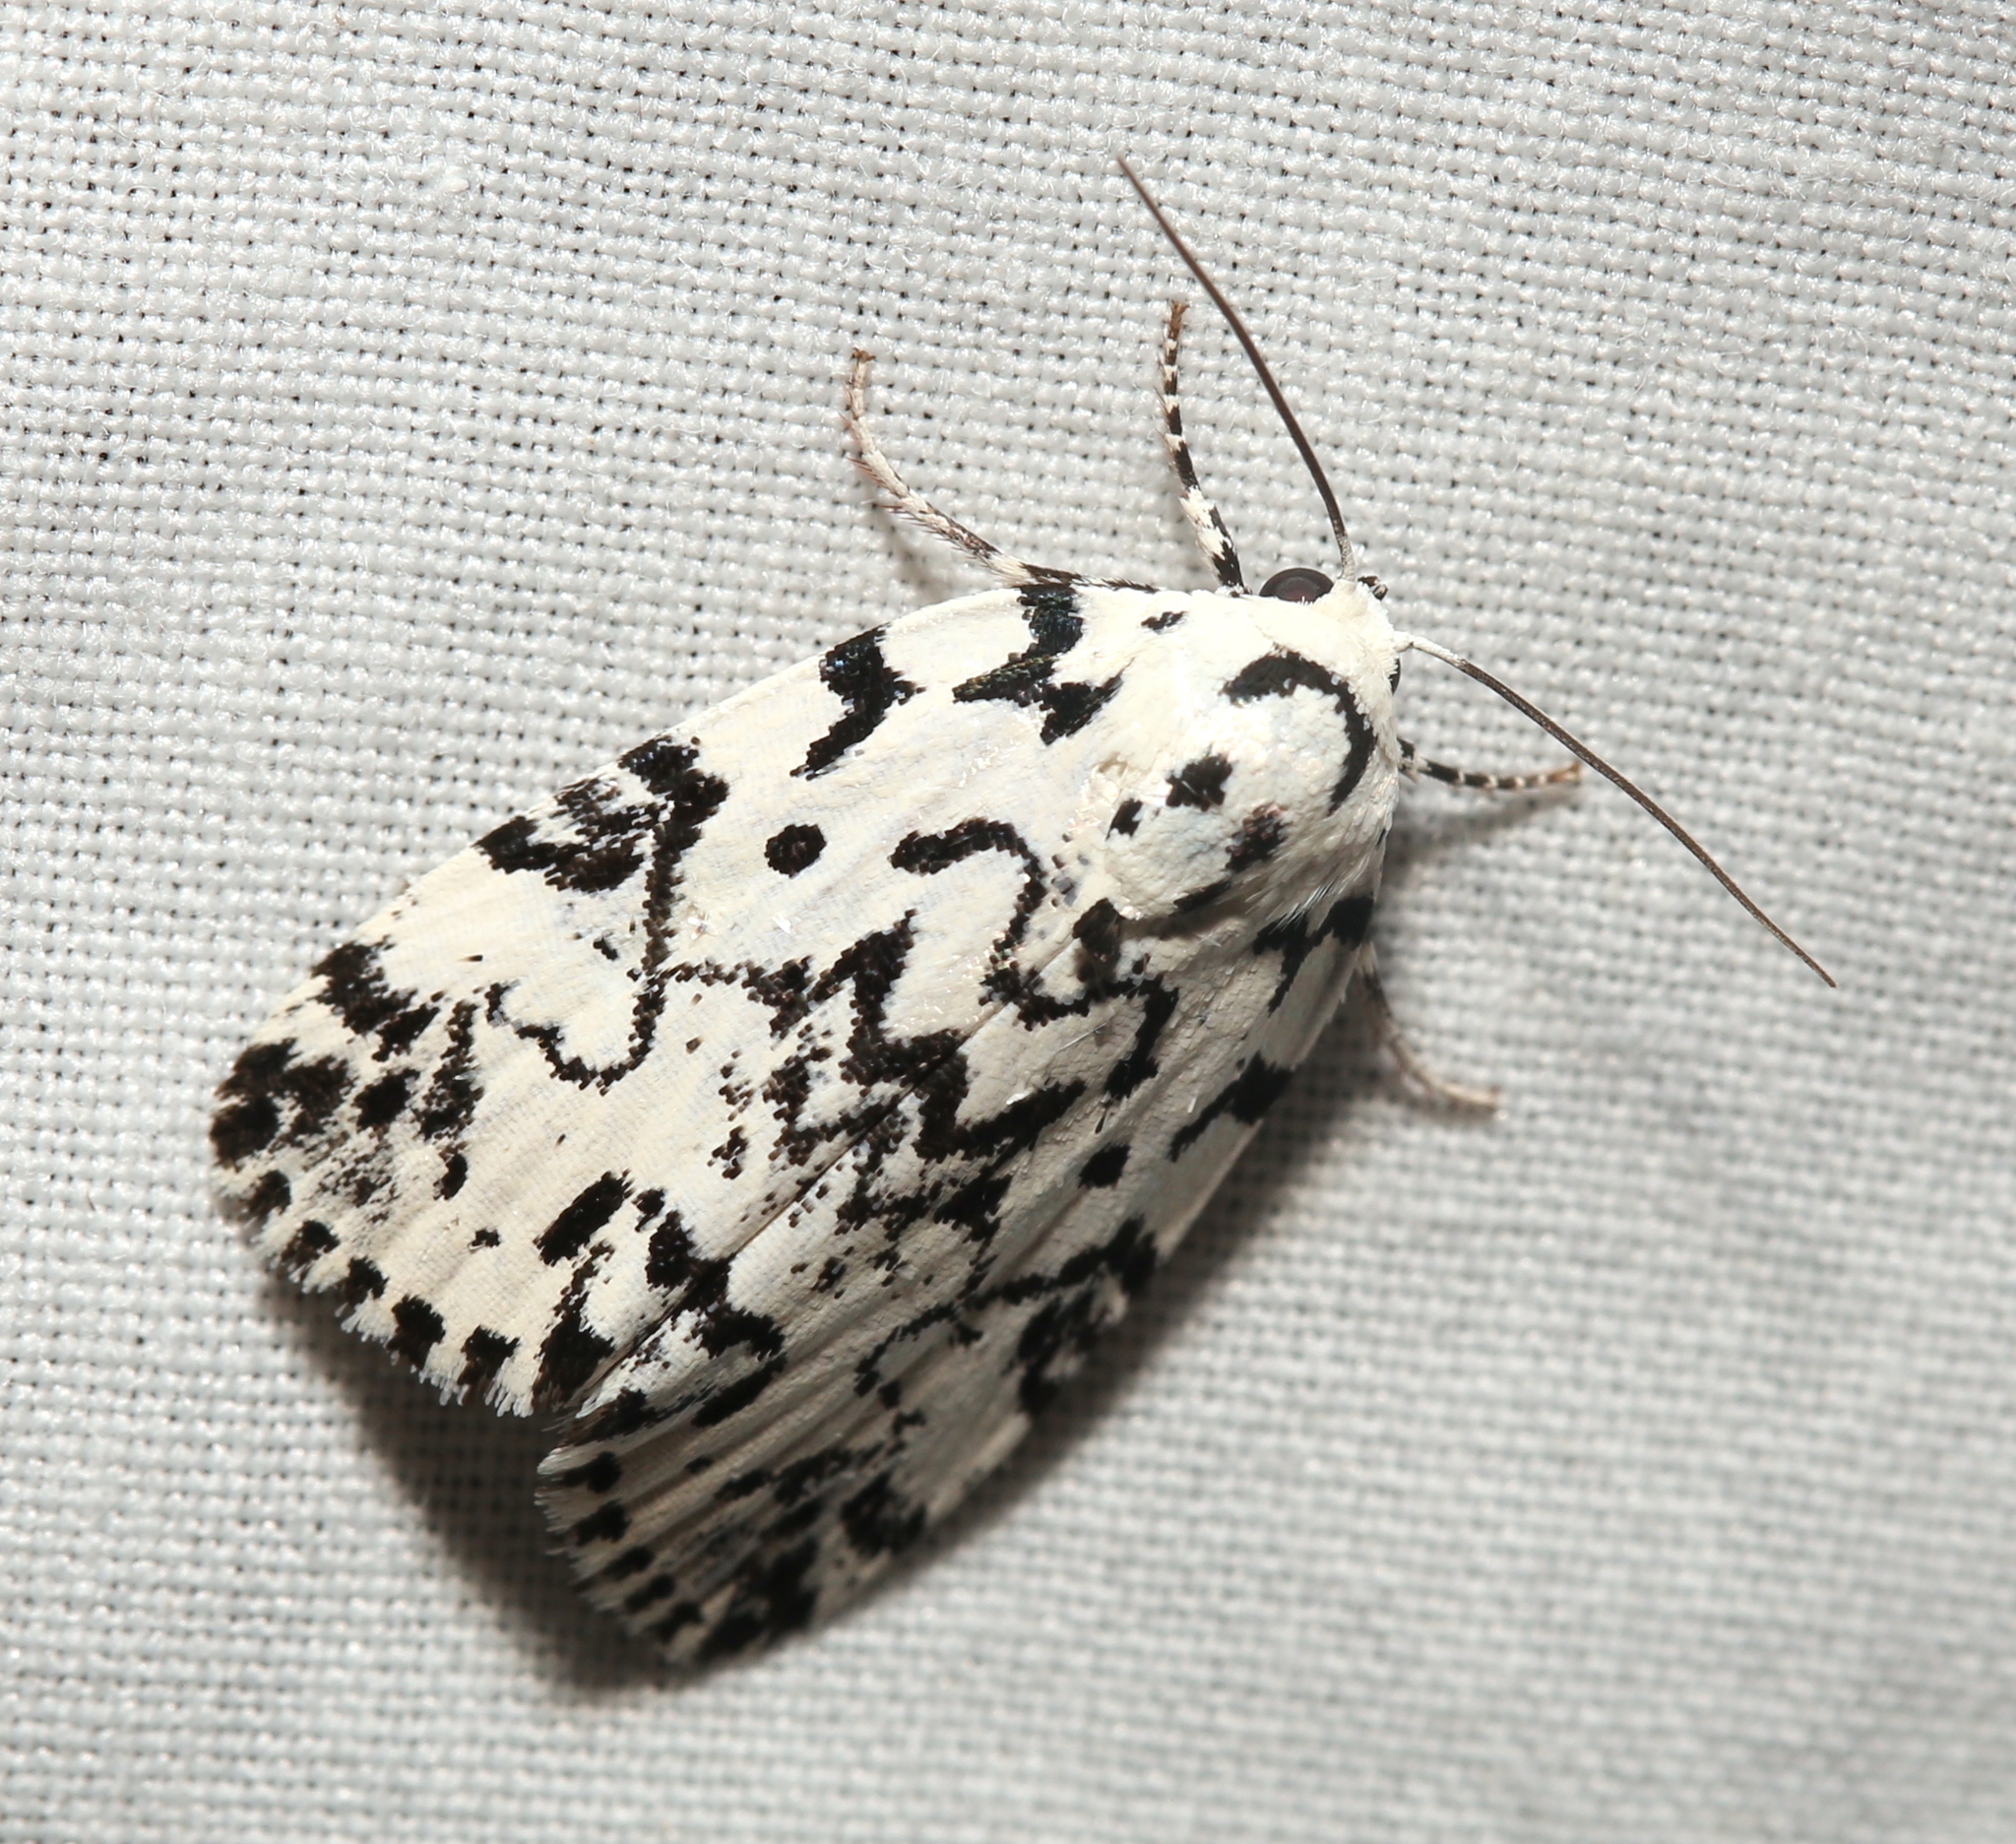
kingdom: Animalia
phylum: Arthropoda
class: Insecta
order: Lepidoptera
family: Noctuidae
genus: Polygrammate
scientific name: Polygrammate hebraeicum
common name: Hebrew moth
